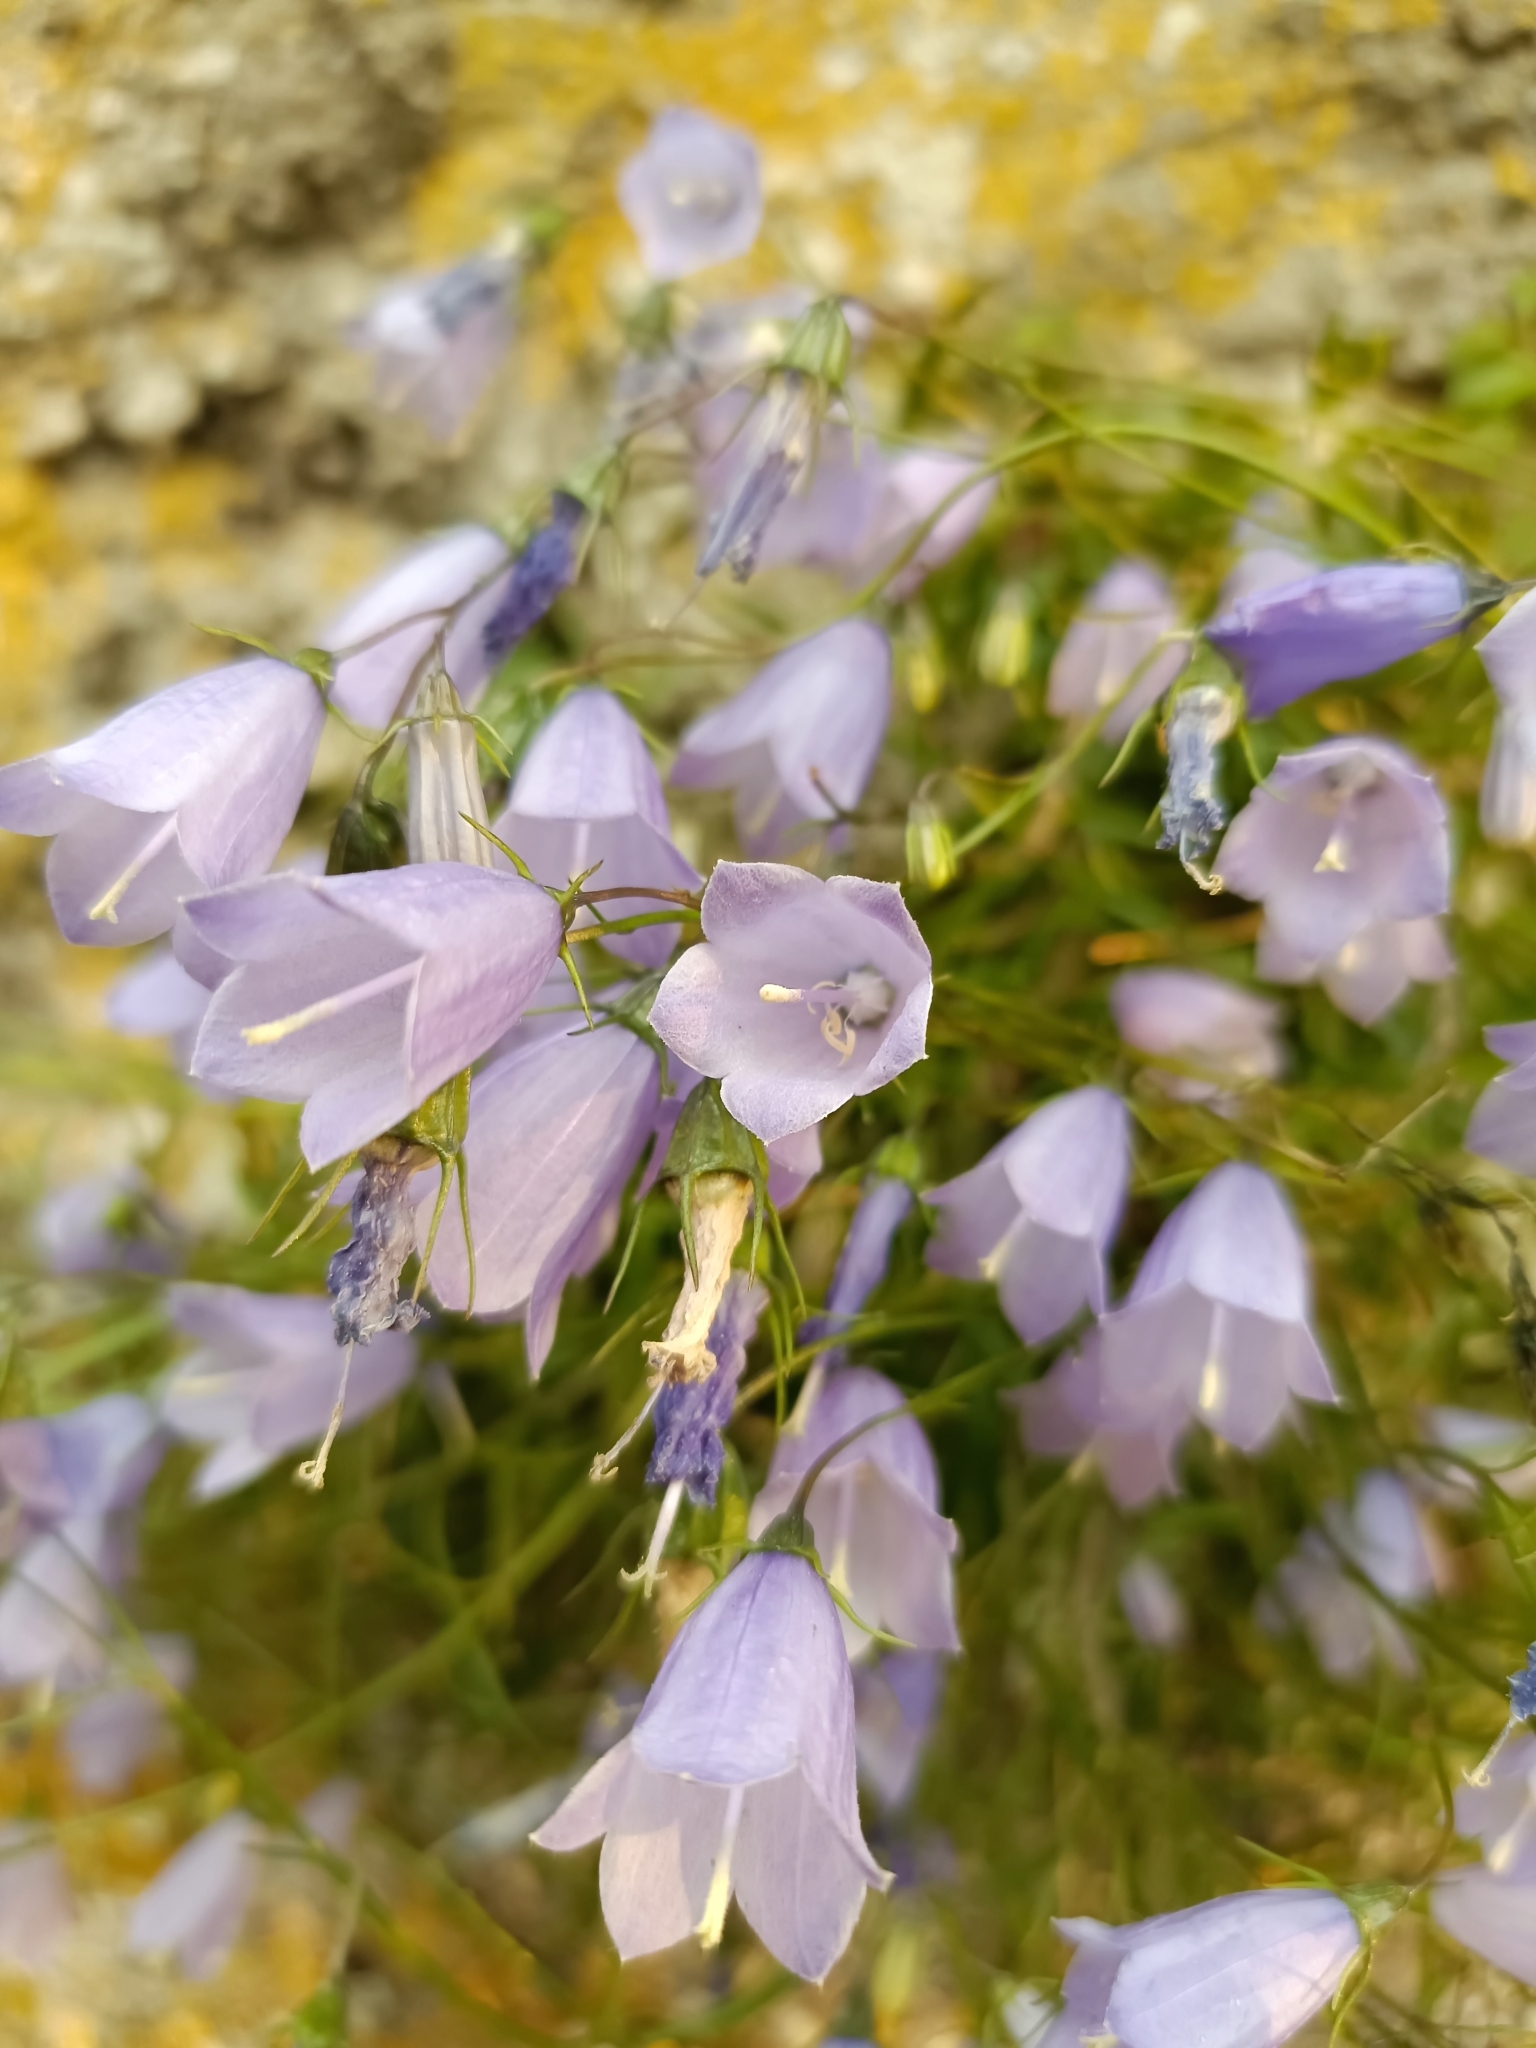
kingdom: Plantae
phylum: Tracheophyta
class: Magnoliopsida
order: Asterales
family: Campanulaceae
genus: Campanula
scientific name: Campanula cochleariifolia
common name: Fairies'-thimbles
